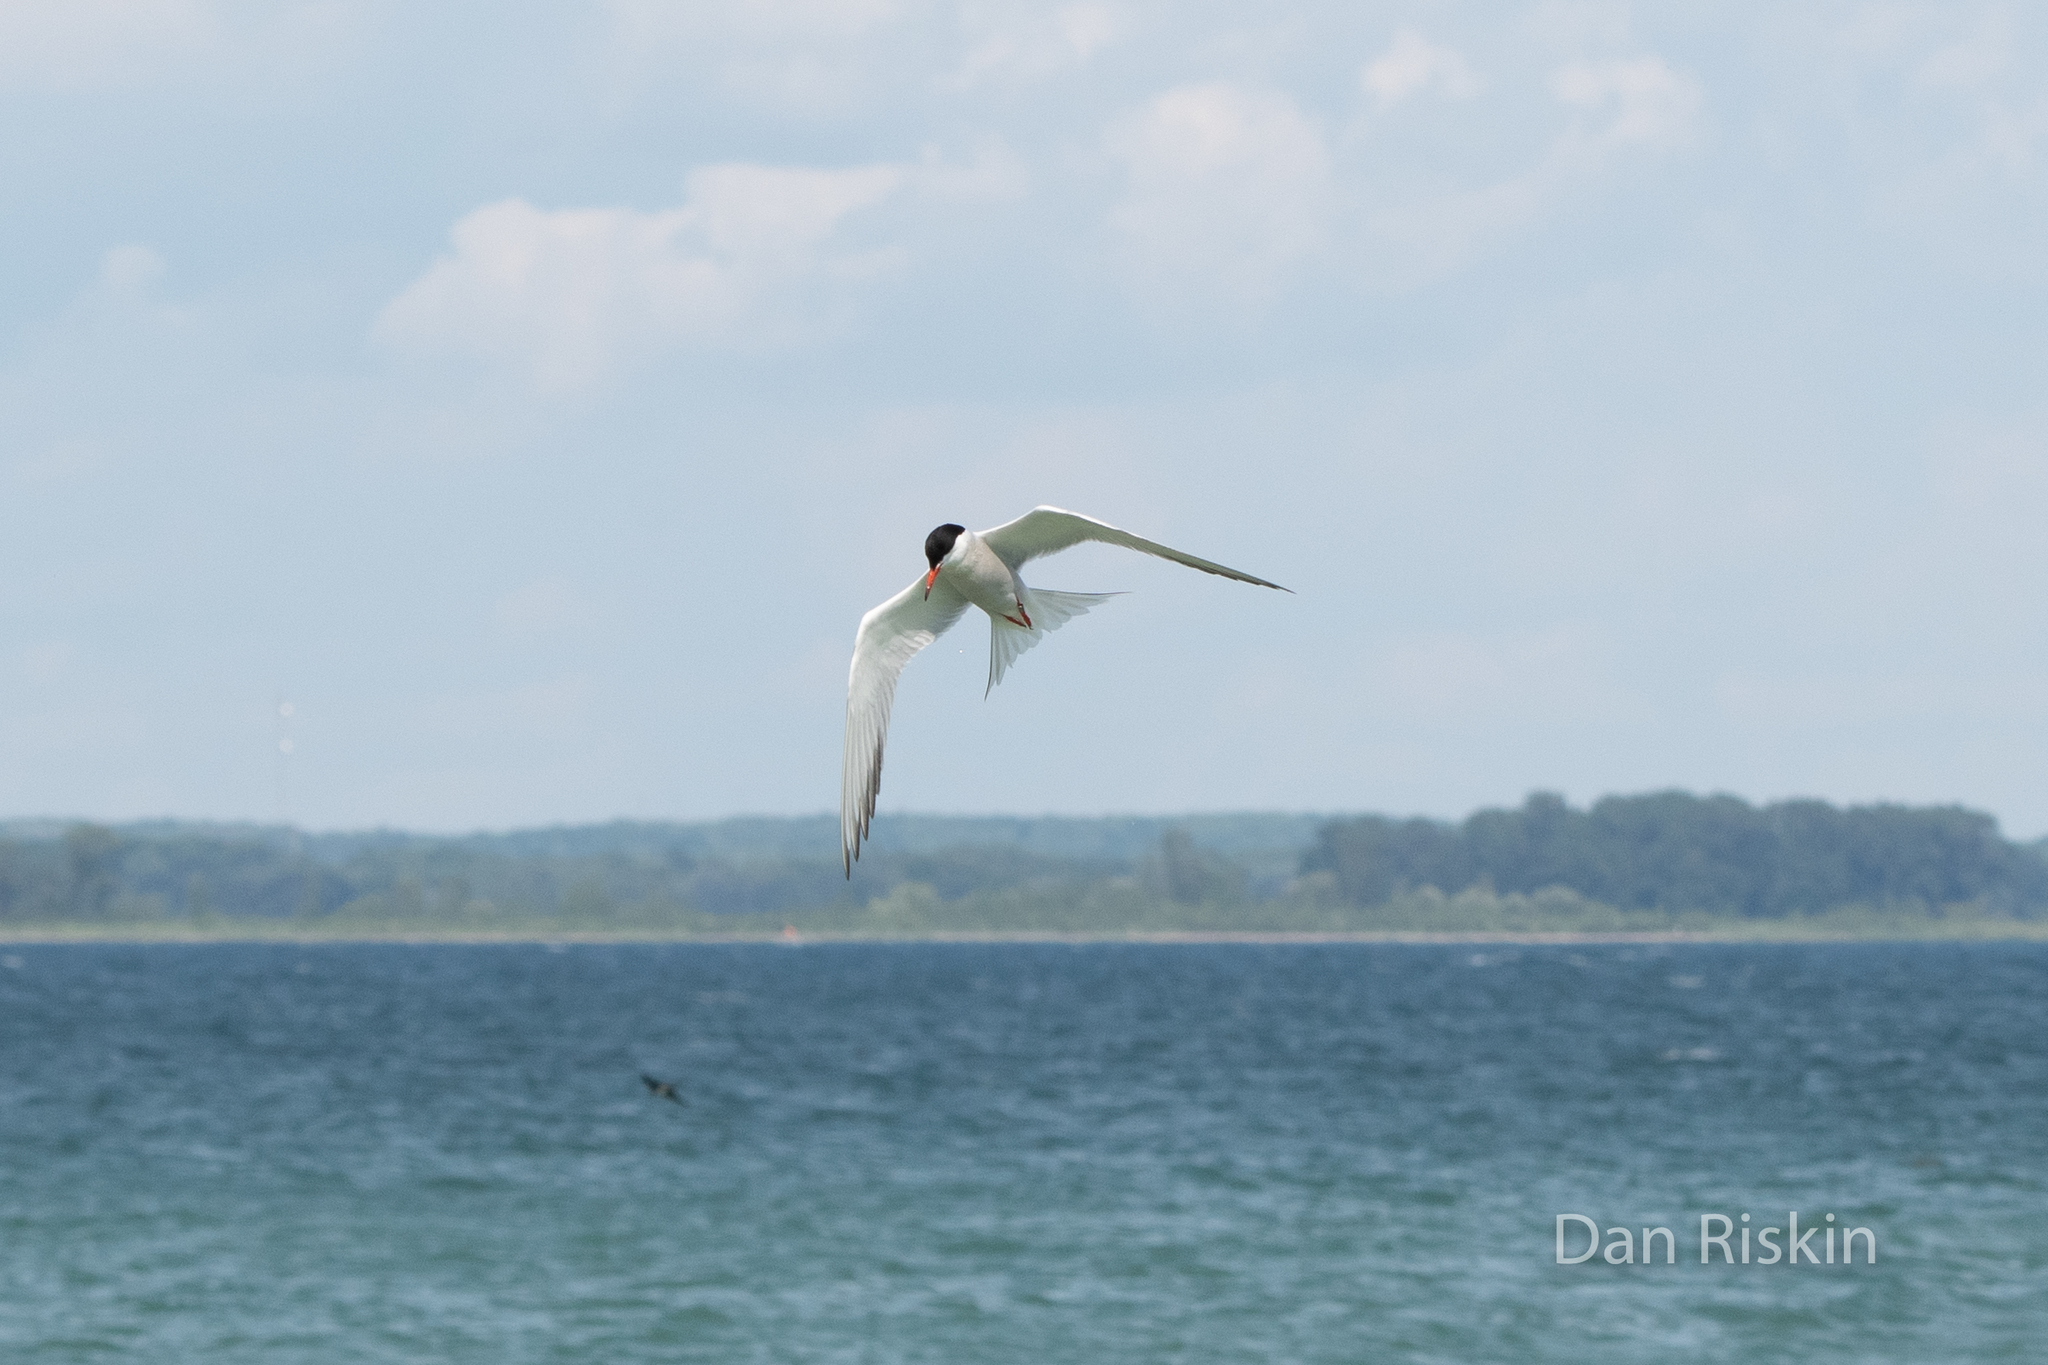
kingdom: Animalia
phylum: Chordata
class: Aves
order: Charadriiformes
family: Laridae
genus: Sterna
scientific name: Sterna hirundo
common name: Common tern
